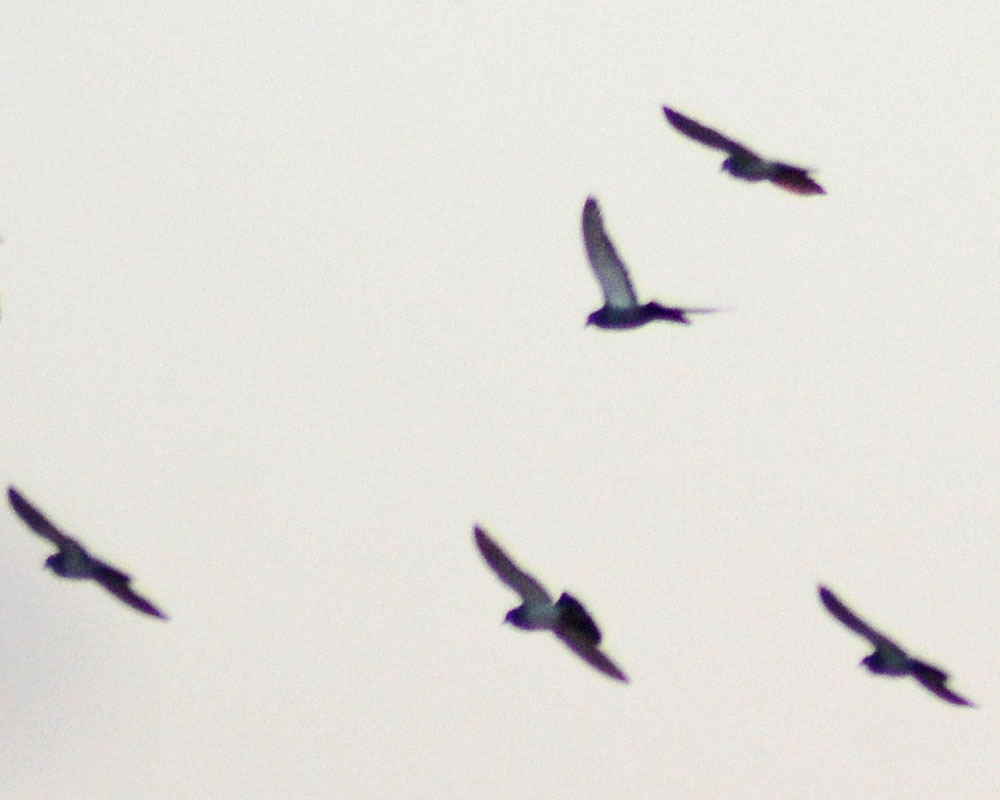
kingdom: Animalia
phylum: Chordata
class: Aves
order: Columbiformes
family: Columbidae
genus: Columba
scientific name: Columba livia
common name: Rock pigeon
